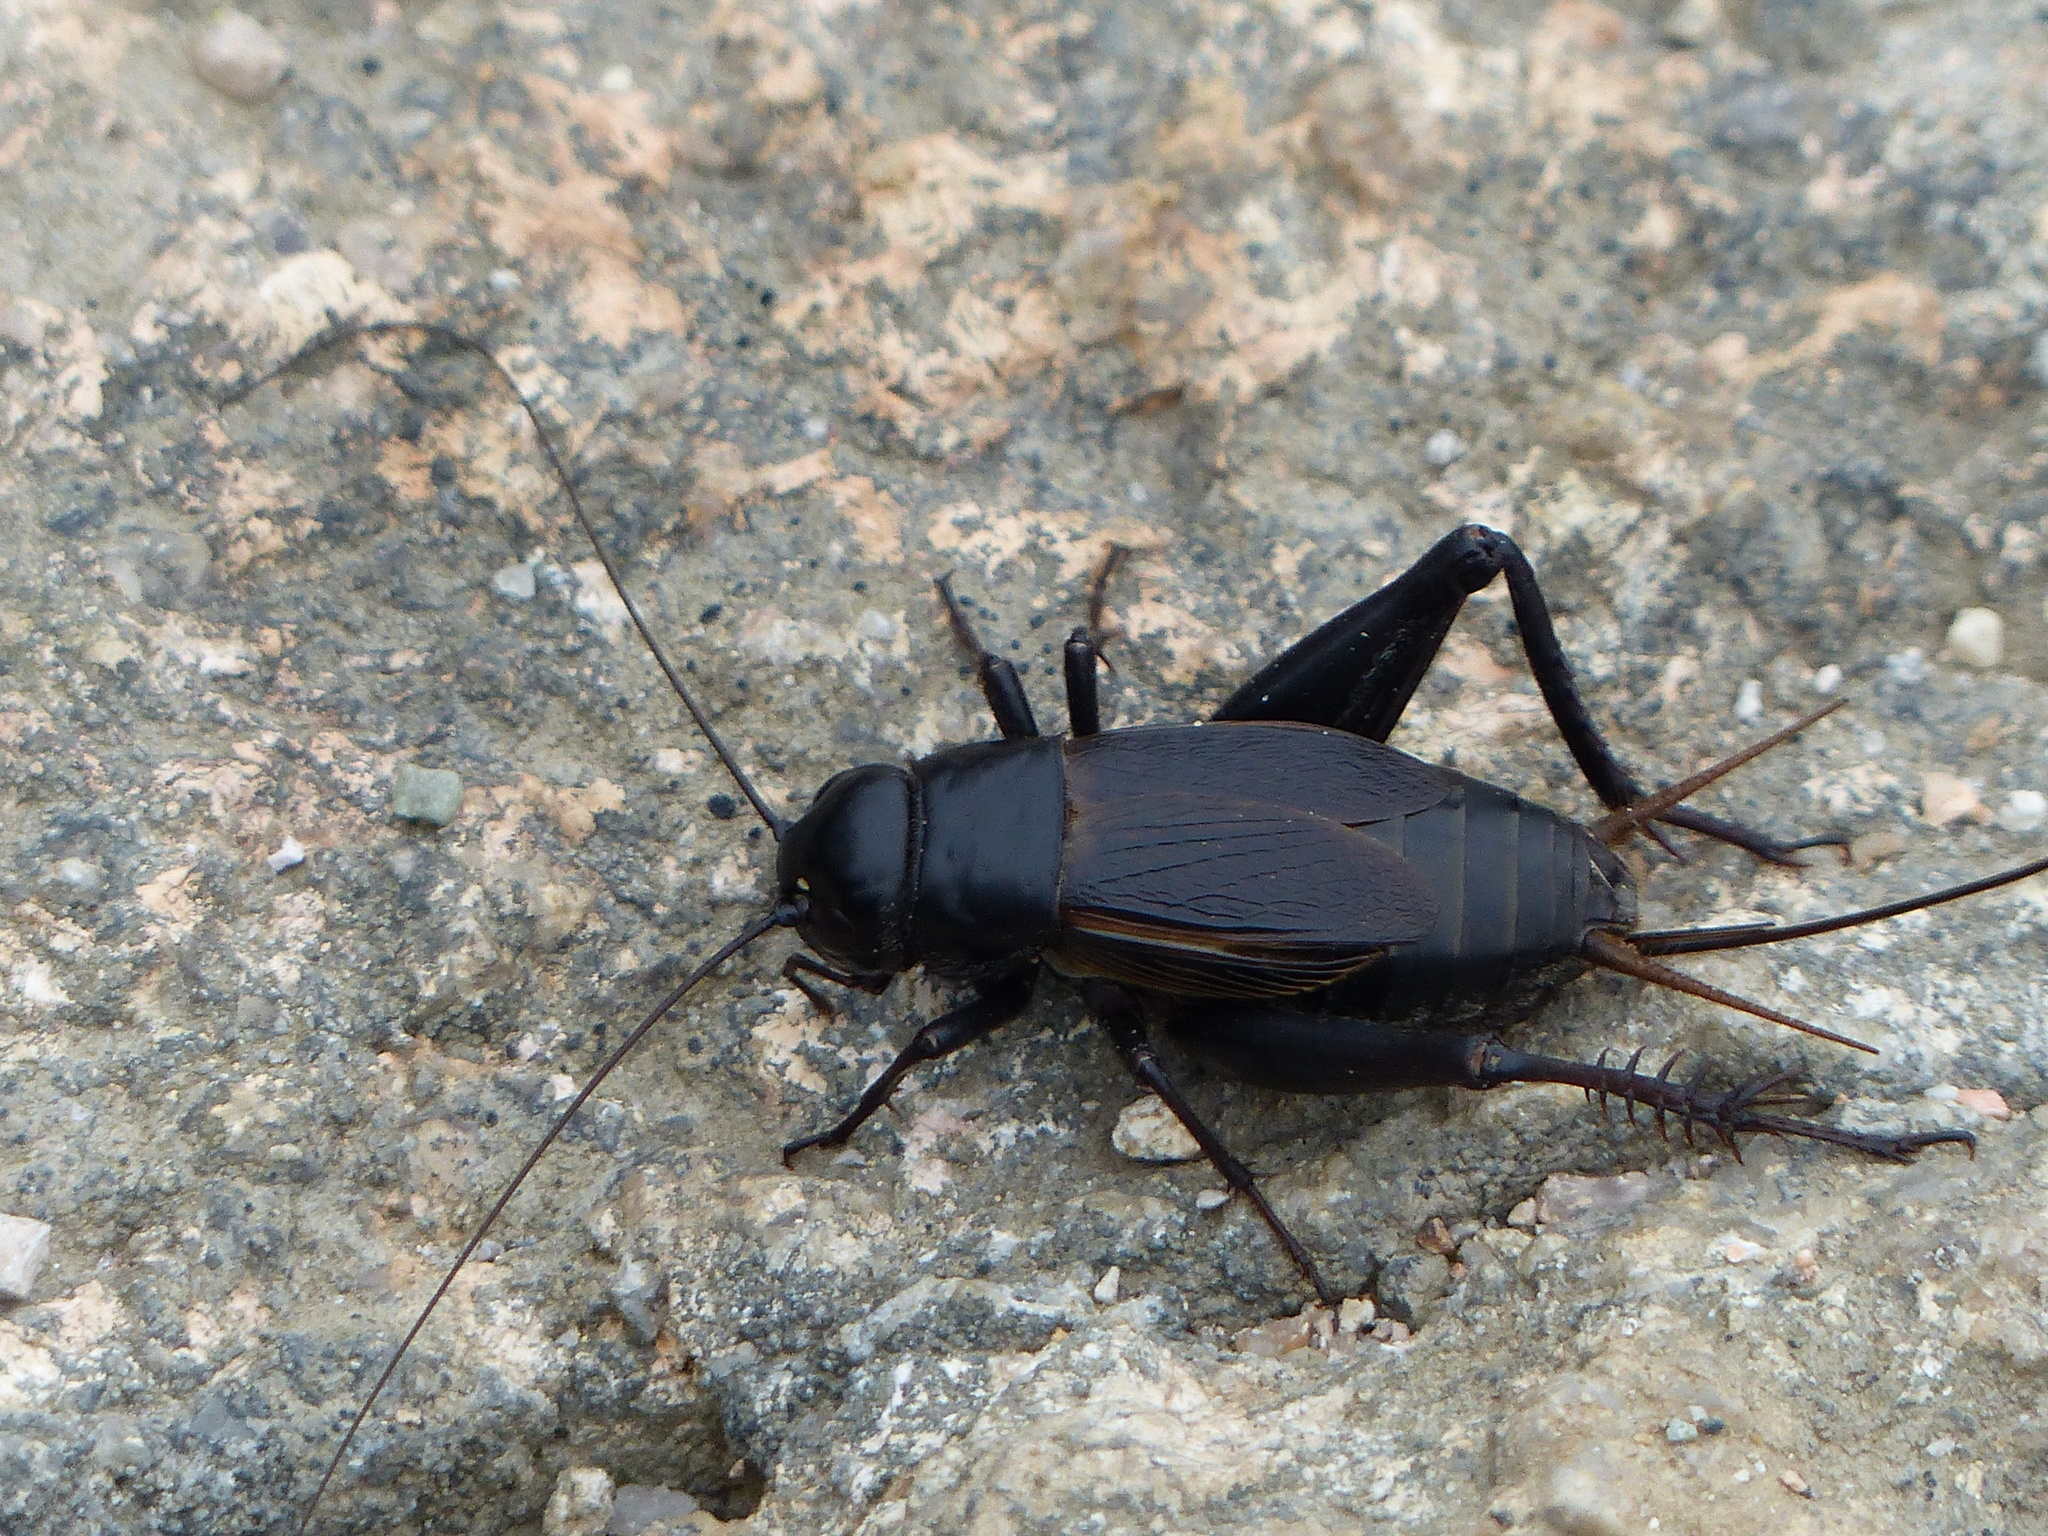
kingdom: Animalia
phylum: Arthropoda
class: Insecta
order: Orthoptera
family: Gryllidae
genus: Gryllus
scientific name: Gryllus pennsylvanicus
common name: Fall field cricket
